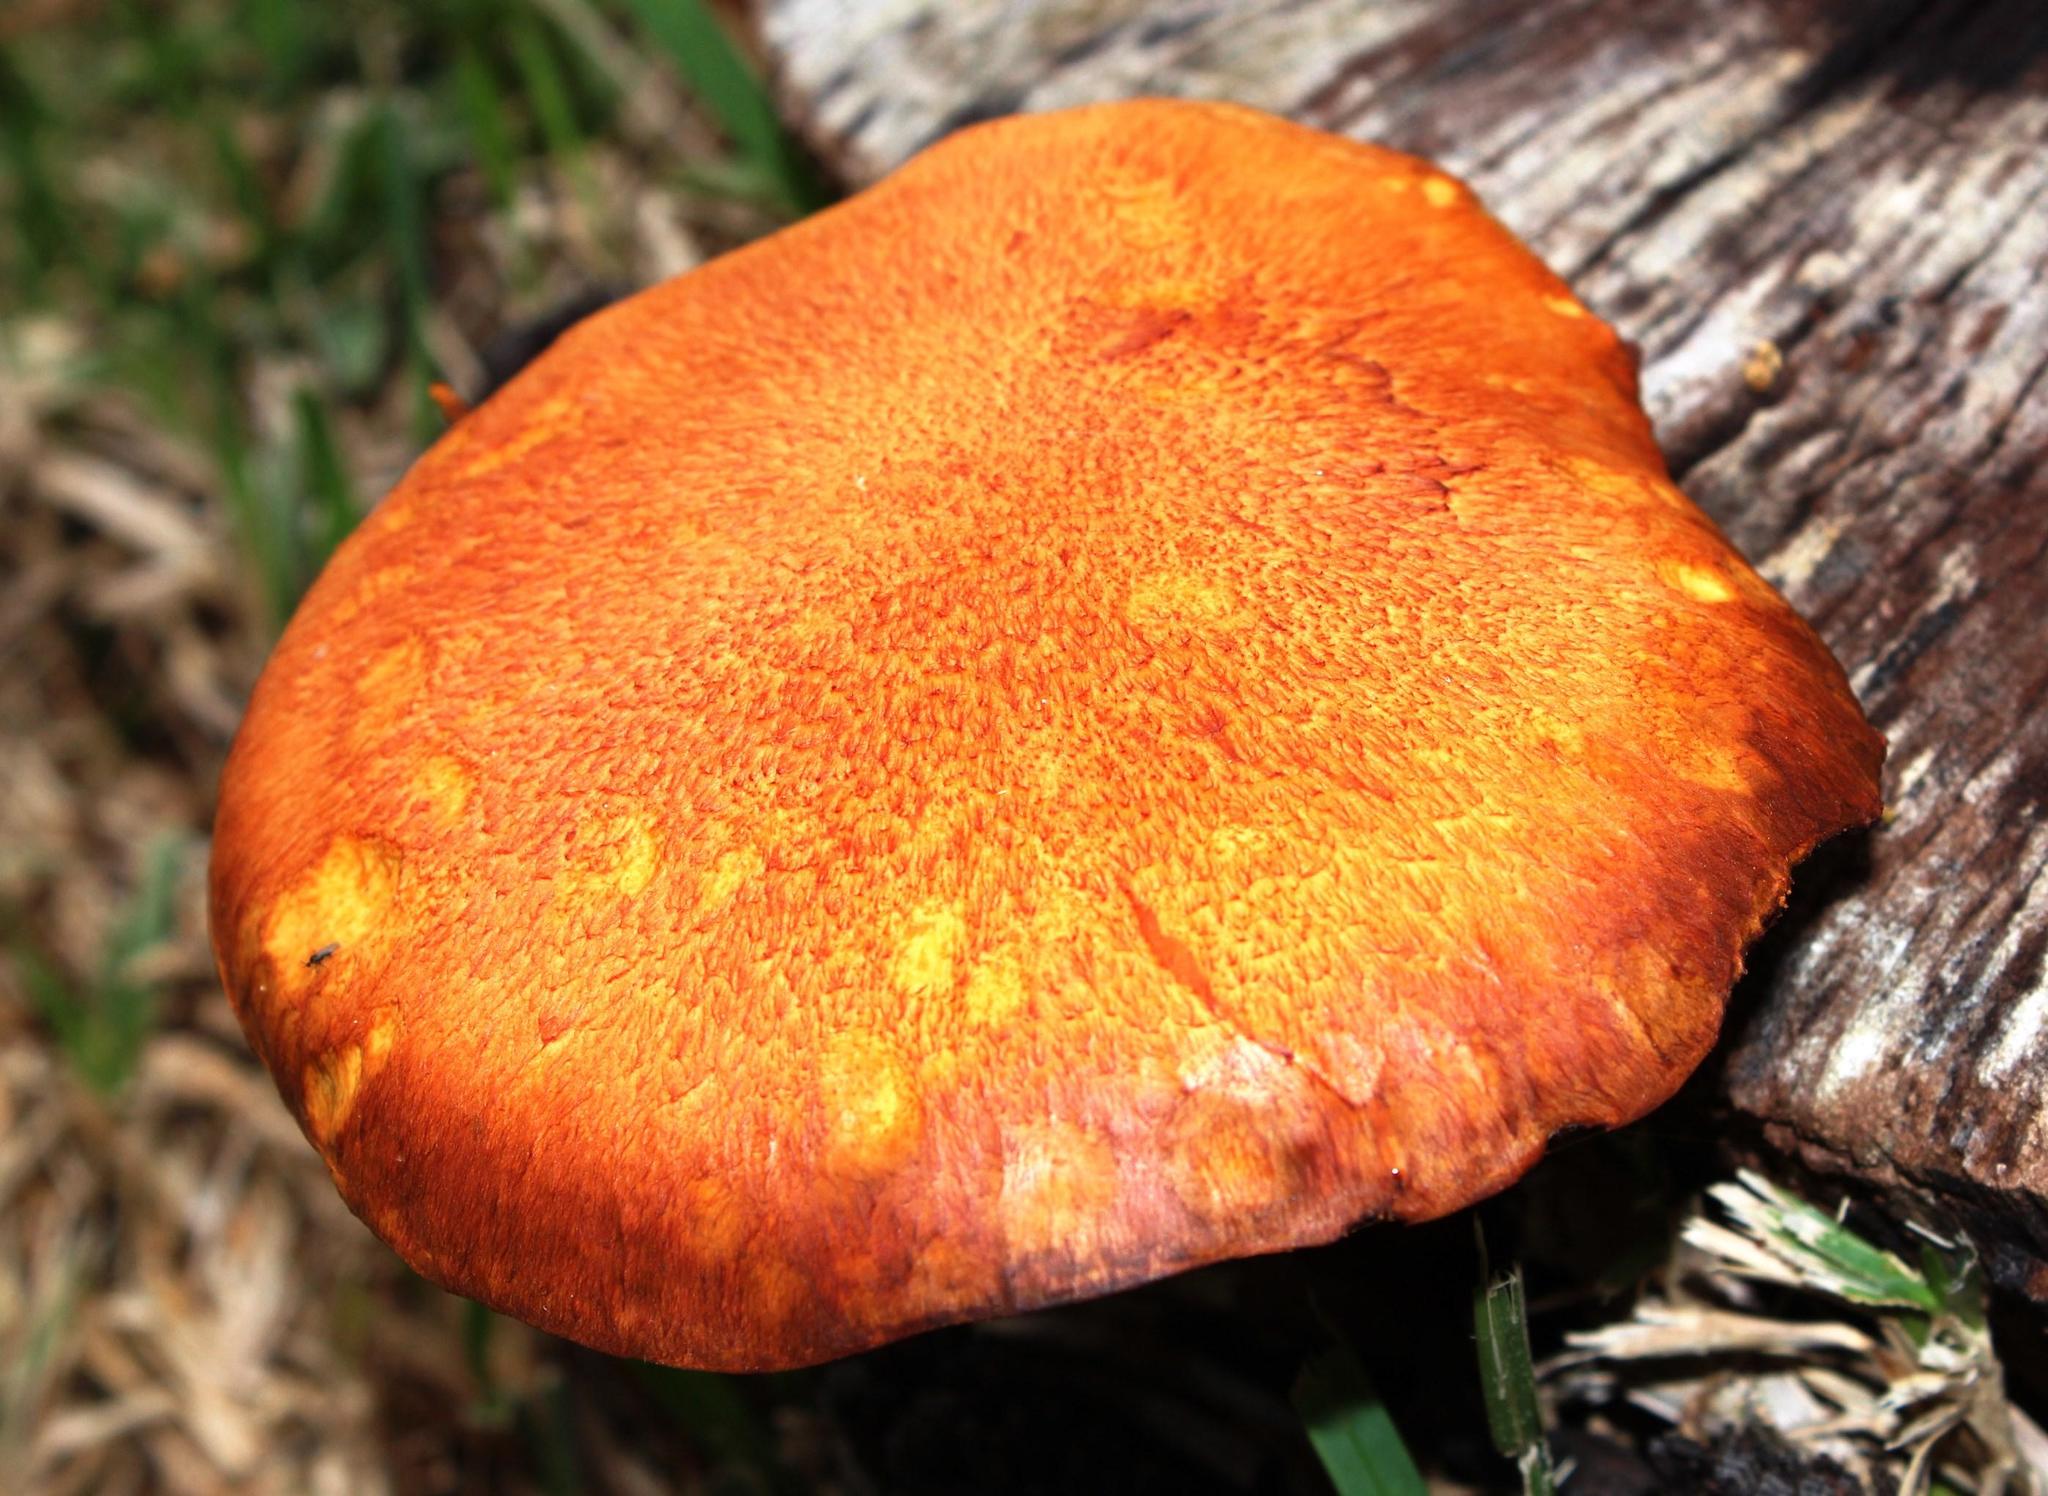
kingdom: Fungi
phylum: Basidiomycota
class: Agaricomycetes
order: Agaricales
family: Hymenogastraceae
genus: Gymnopilus
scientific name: Gymnopilus junonius
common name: Spectacular rustgill
